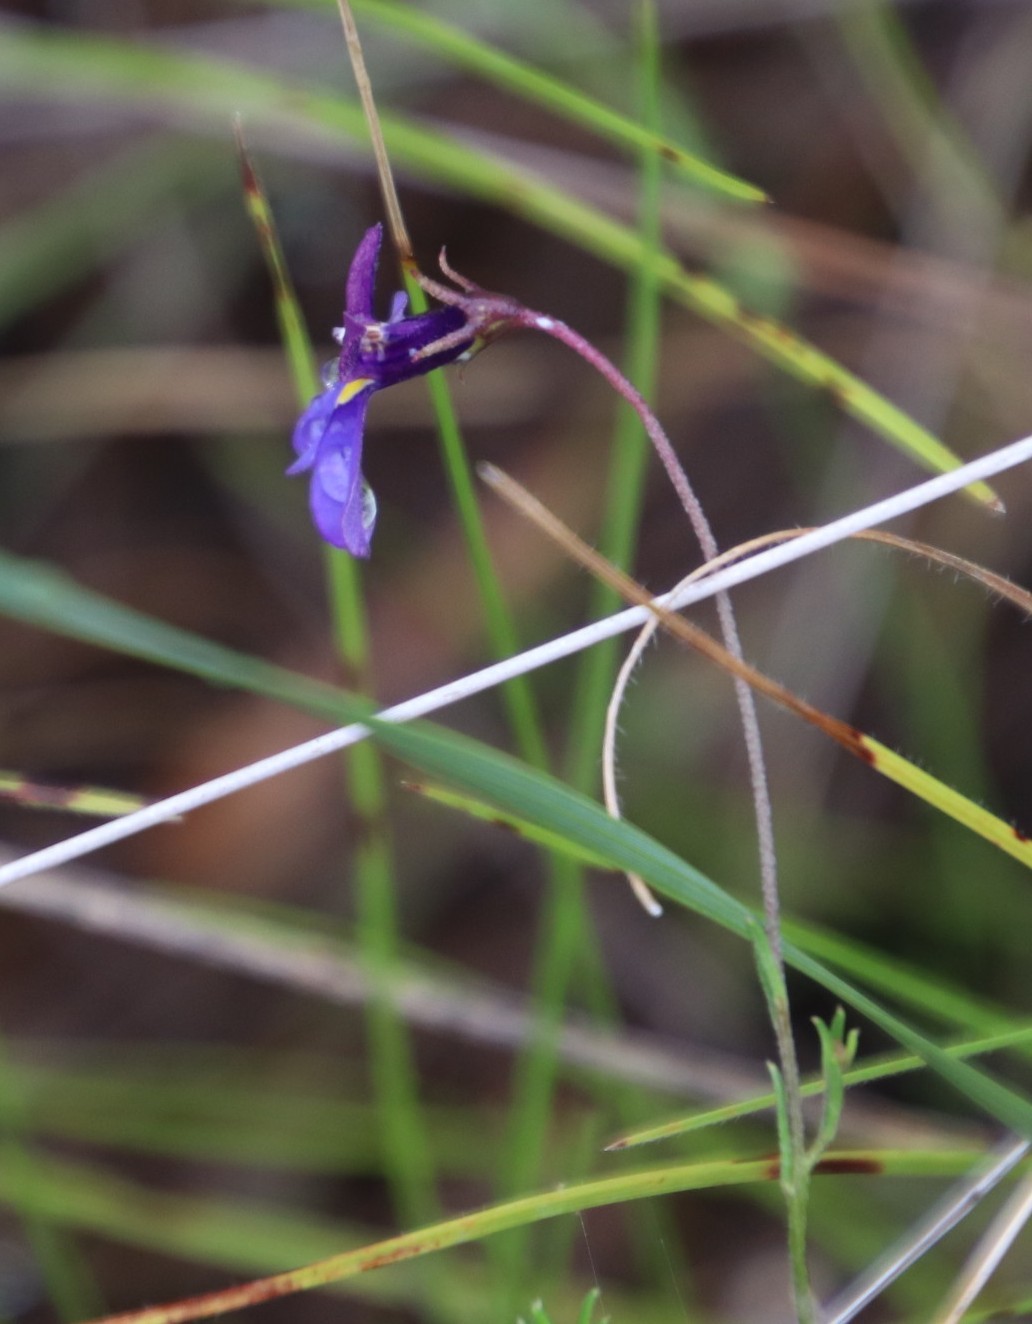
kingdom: Plantae
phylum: Tracheophyta
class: Magnoliopsida
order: Asterales
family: Campanulaceae
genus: Monopsis
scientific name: Monopsis decipiens
